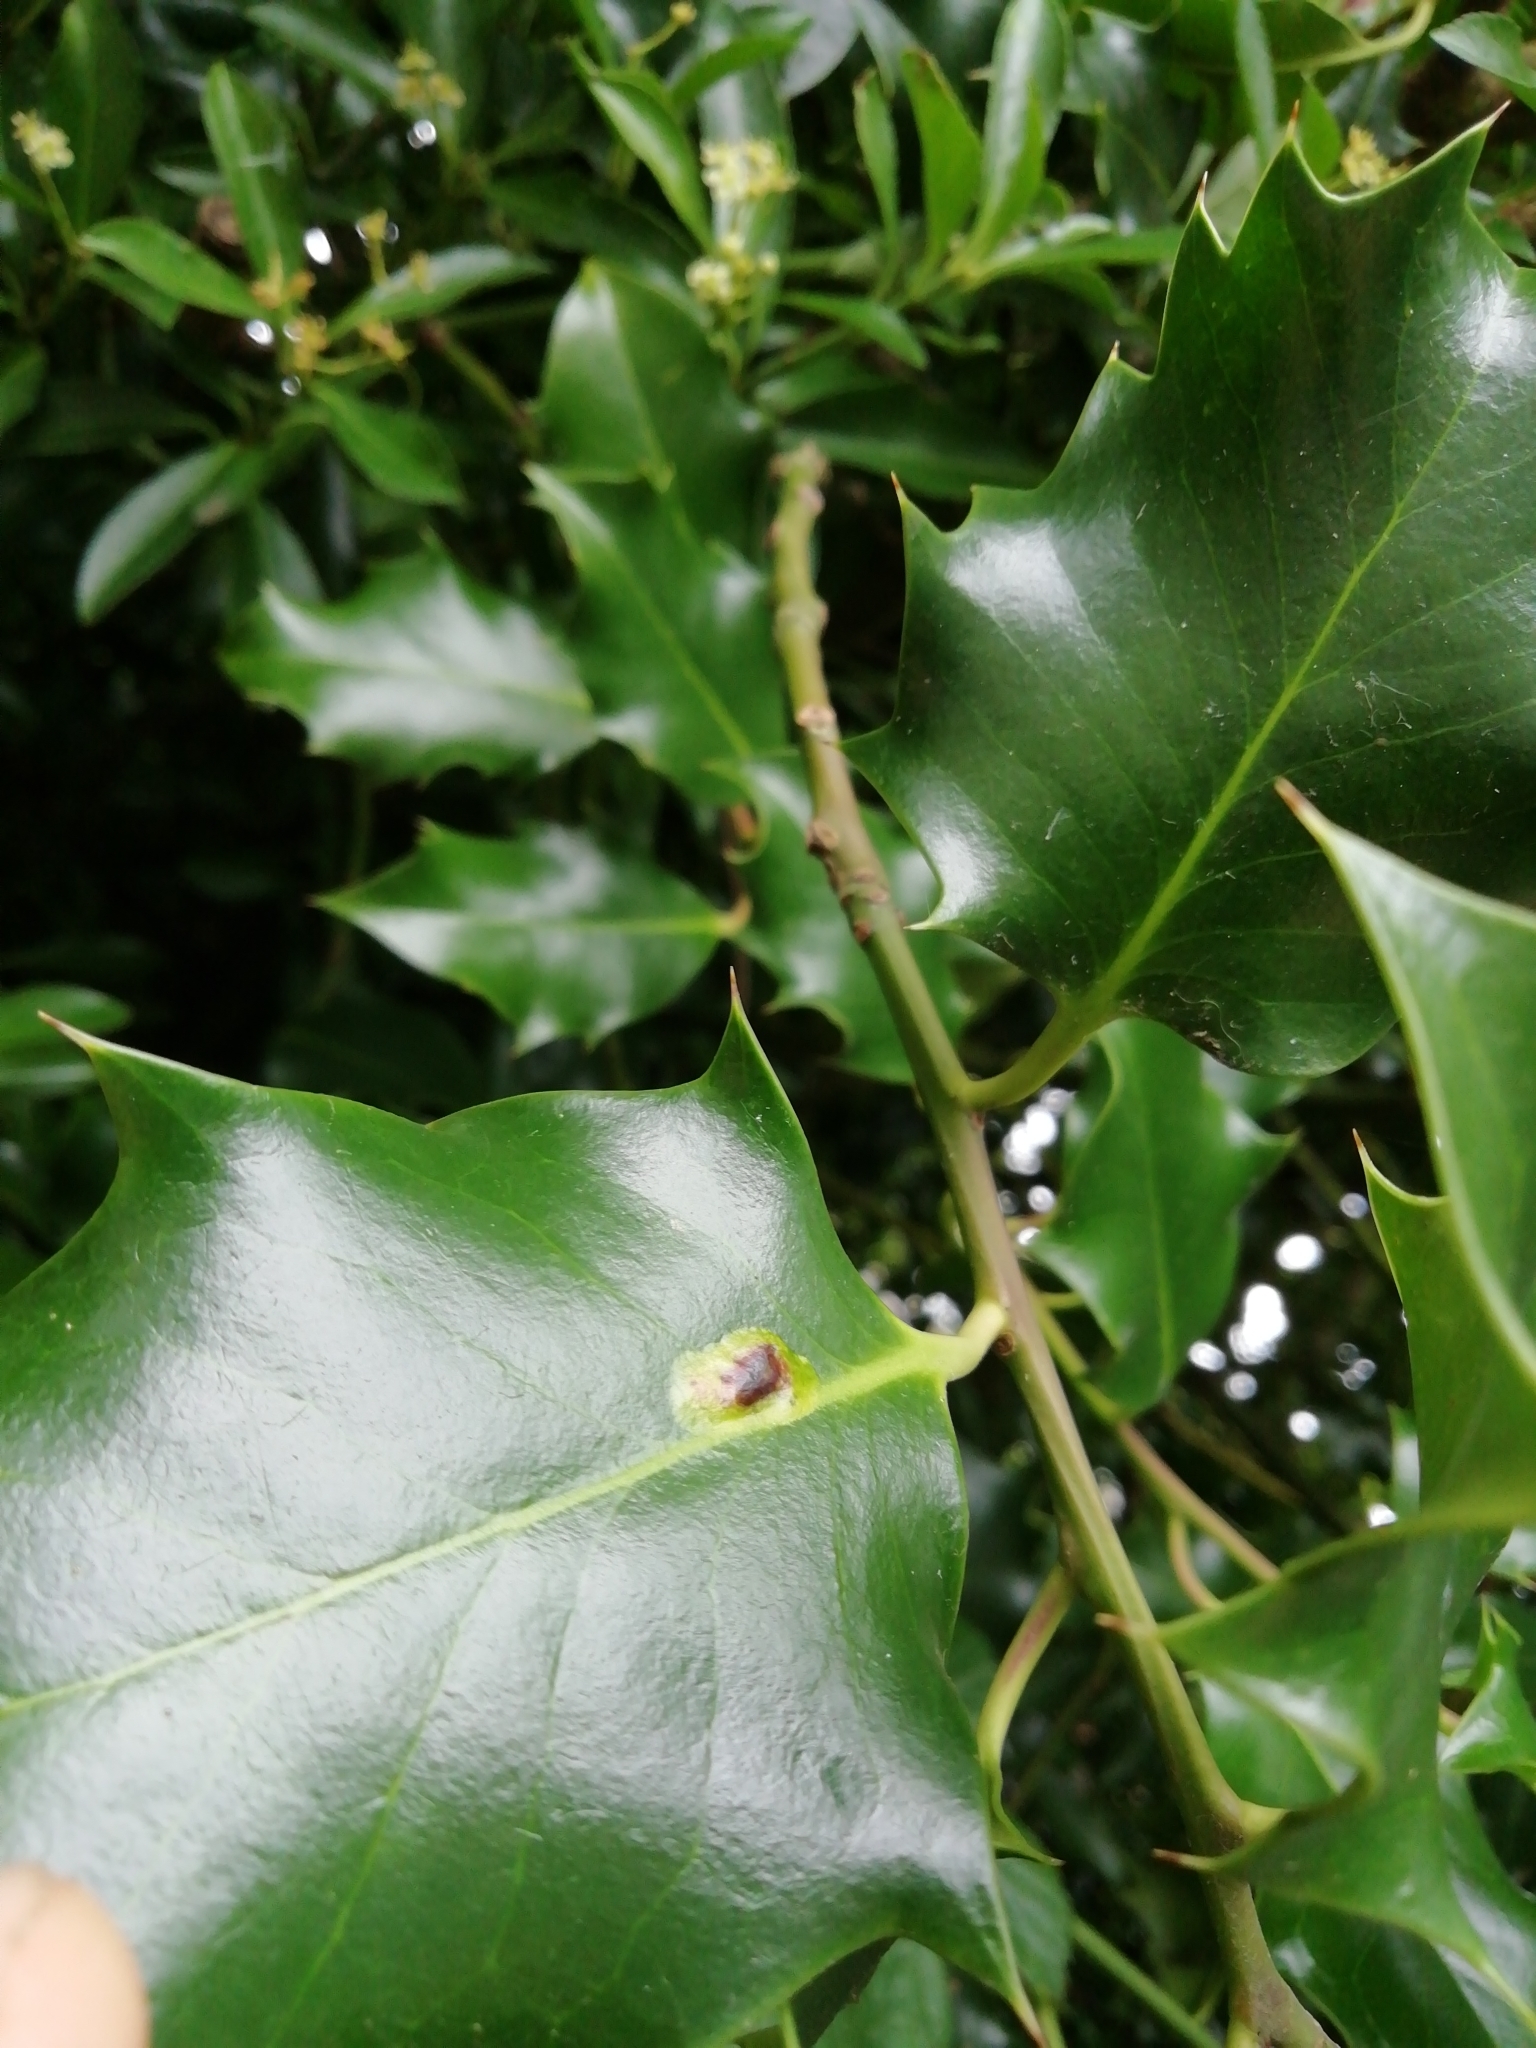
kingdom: Animalia
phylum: Arthropoda
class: Insecta
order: Diptera
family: Agromyzidae
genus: Phytomyza
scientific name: Phytomyza ilicis
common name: Holly leafminer
